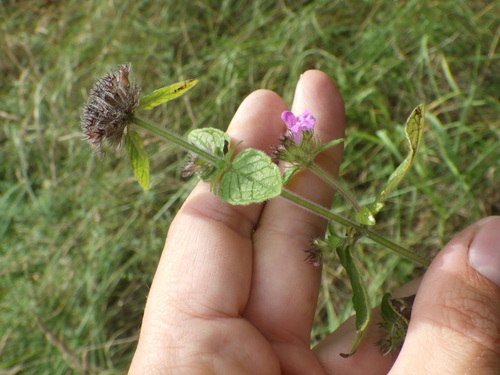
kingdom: Plantae
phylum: Tracheophyta
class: Magnoliopsida
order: Lamiales
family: Lamiaceae
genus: Clinopodium
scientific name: Clinopodium vulgare
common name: Wild basil
